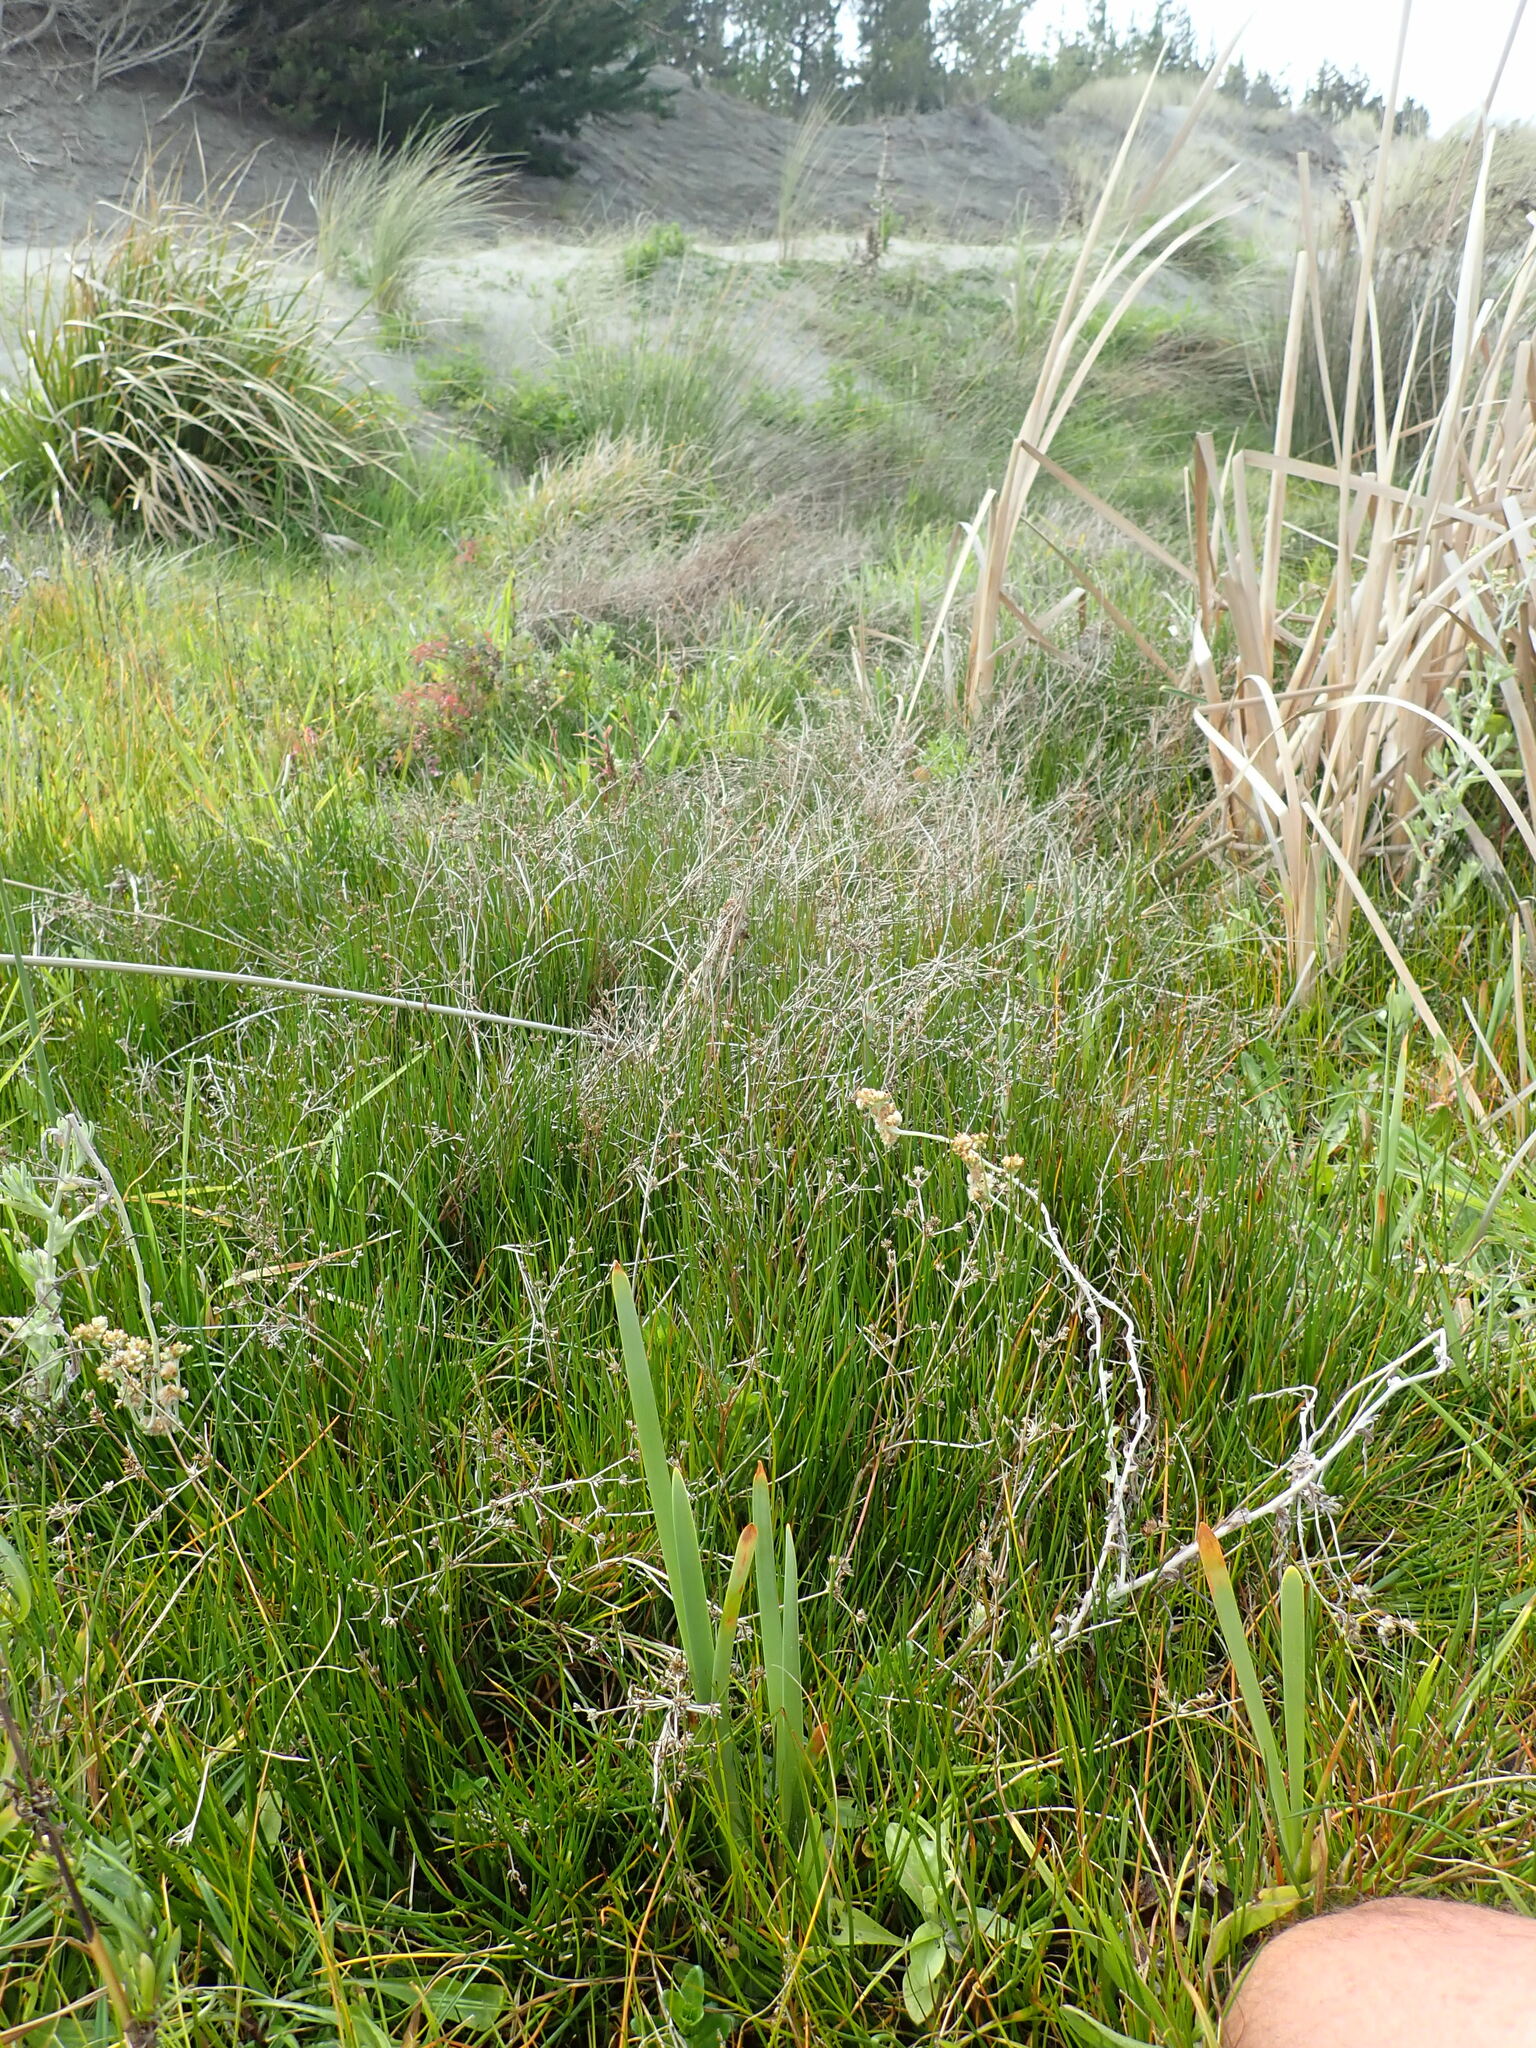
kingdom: Plantae
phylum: Tracheophyta
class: Liliopsida
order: Poales
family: Juncaceae
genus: Juncus
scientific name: Juncus articulatus
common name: Jointed rush
